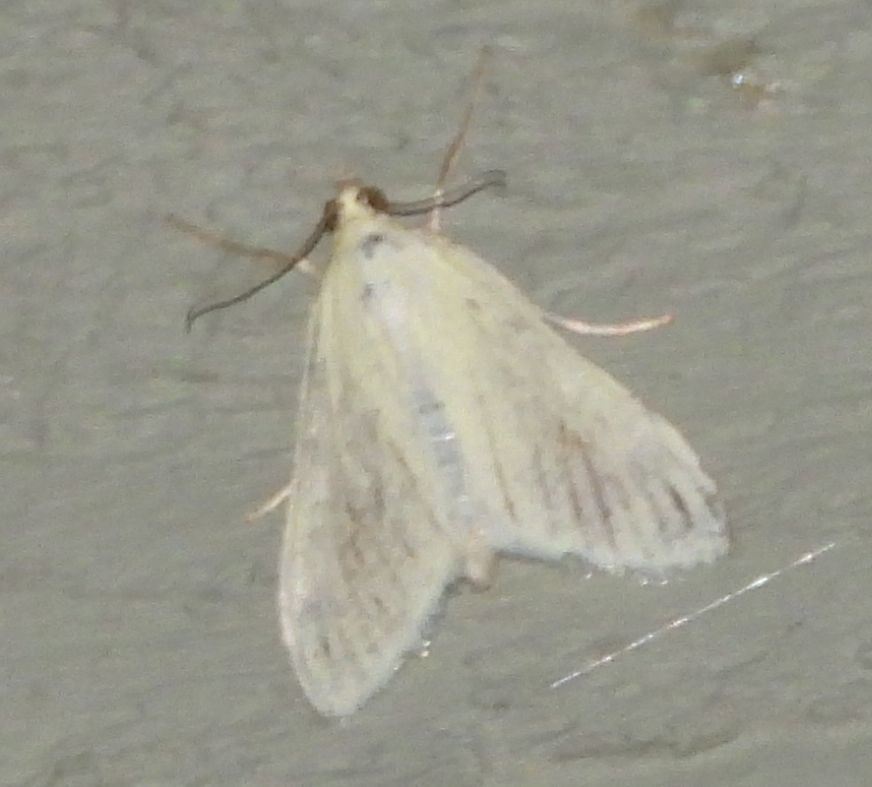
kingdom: Animalia
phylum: Arthropoda
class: Insecta
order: Lepidoptera
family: Crambidae
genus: Sitochroa
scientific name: Sitochroa palealis
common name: Greenish-yellow sitochroa moth
